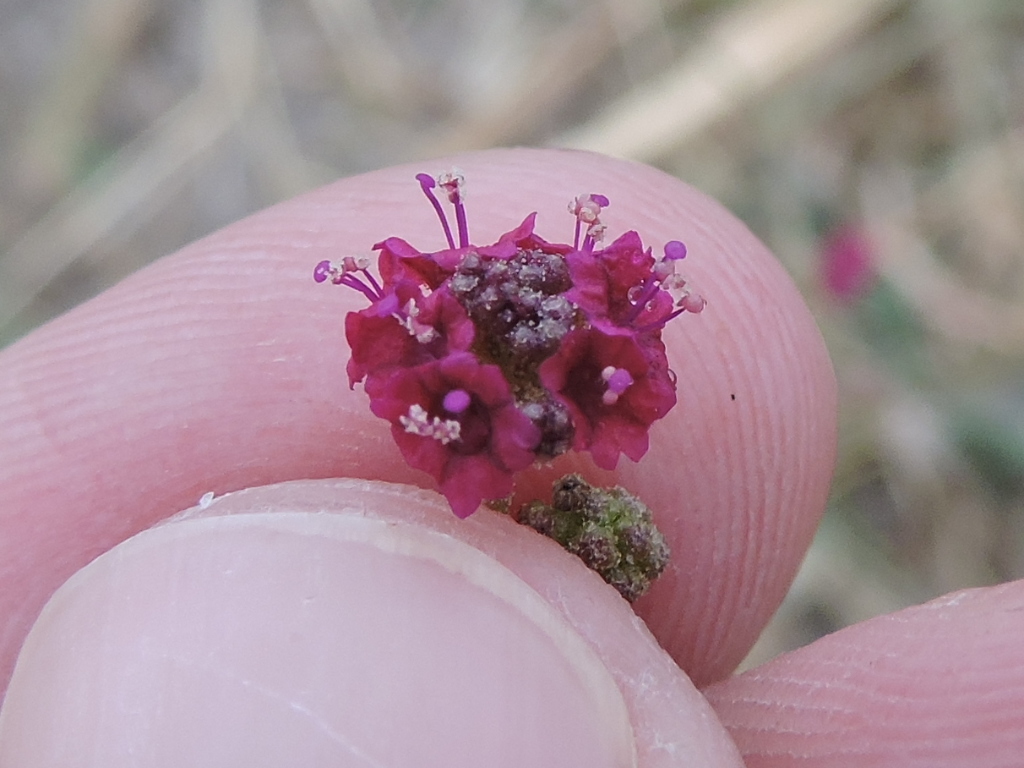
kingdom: Plantae
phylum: Tracheophyta
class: Magnoliopsida
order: Caryophyllales
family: Nyctaginaceae
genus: Boerhavia
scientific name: Boerhavia coccinea
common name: Scarlet spiderling
